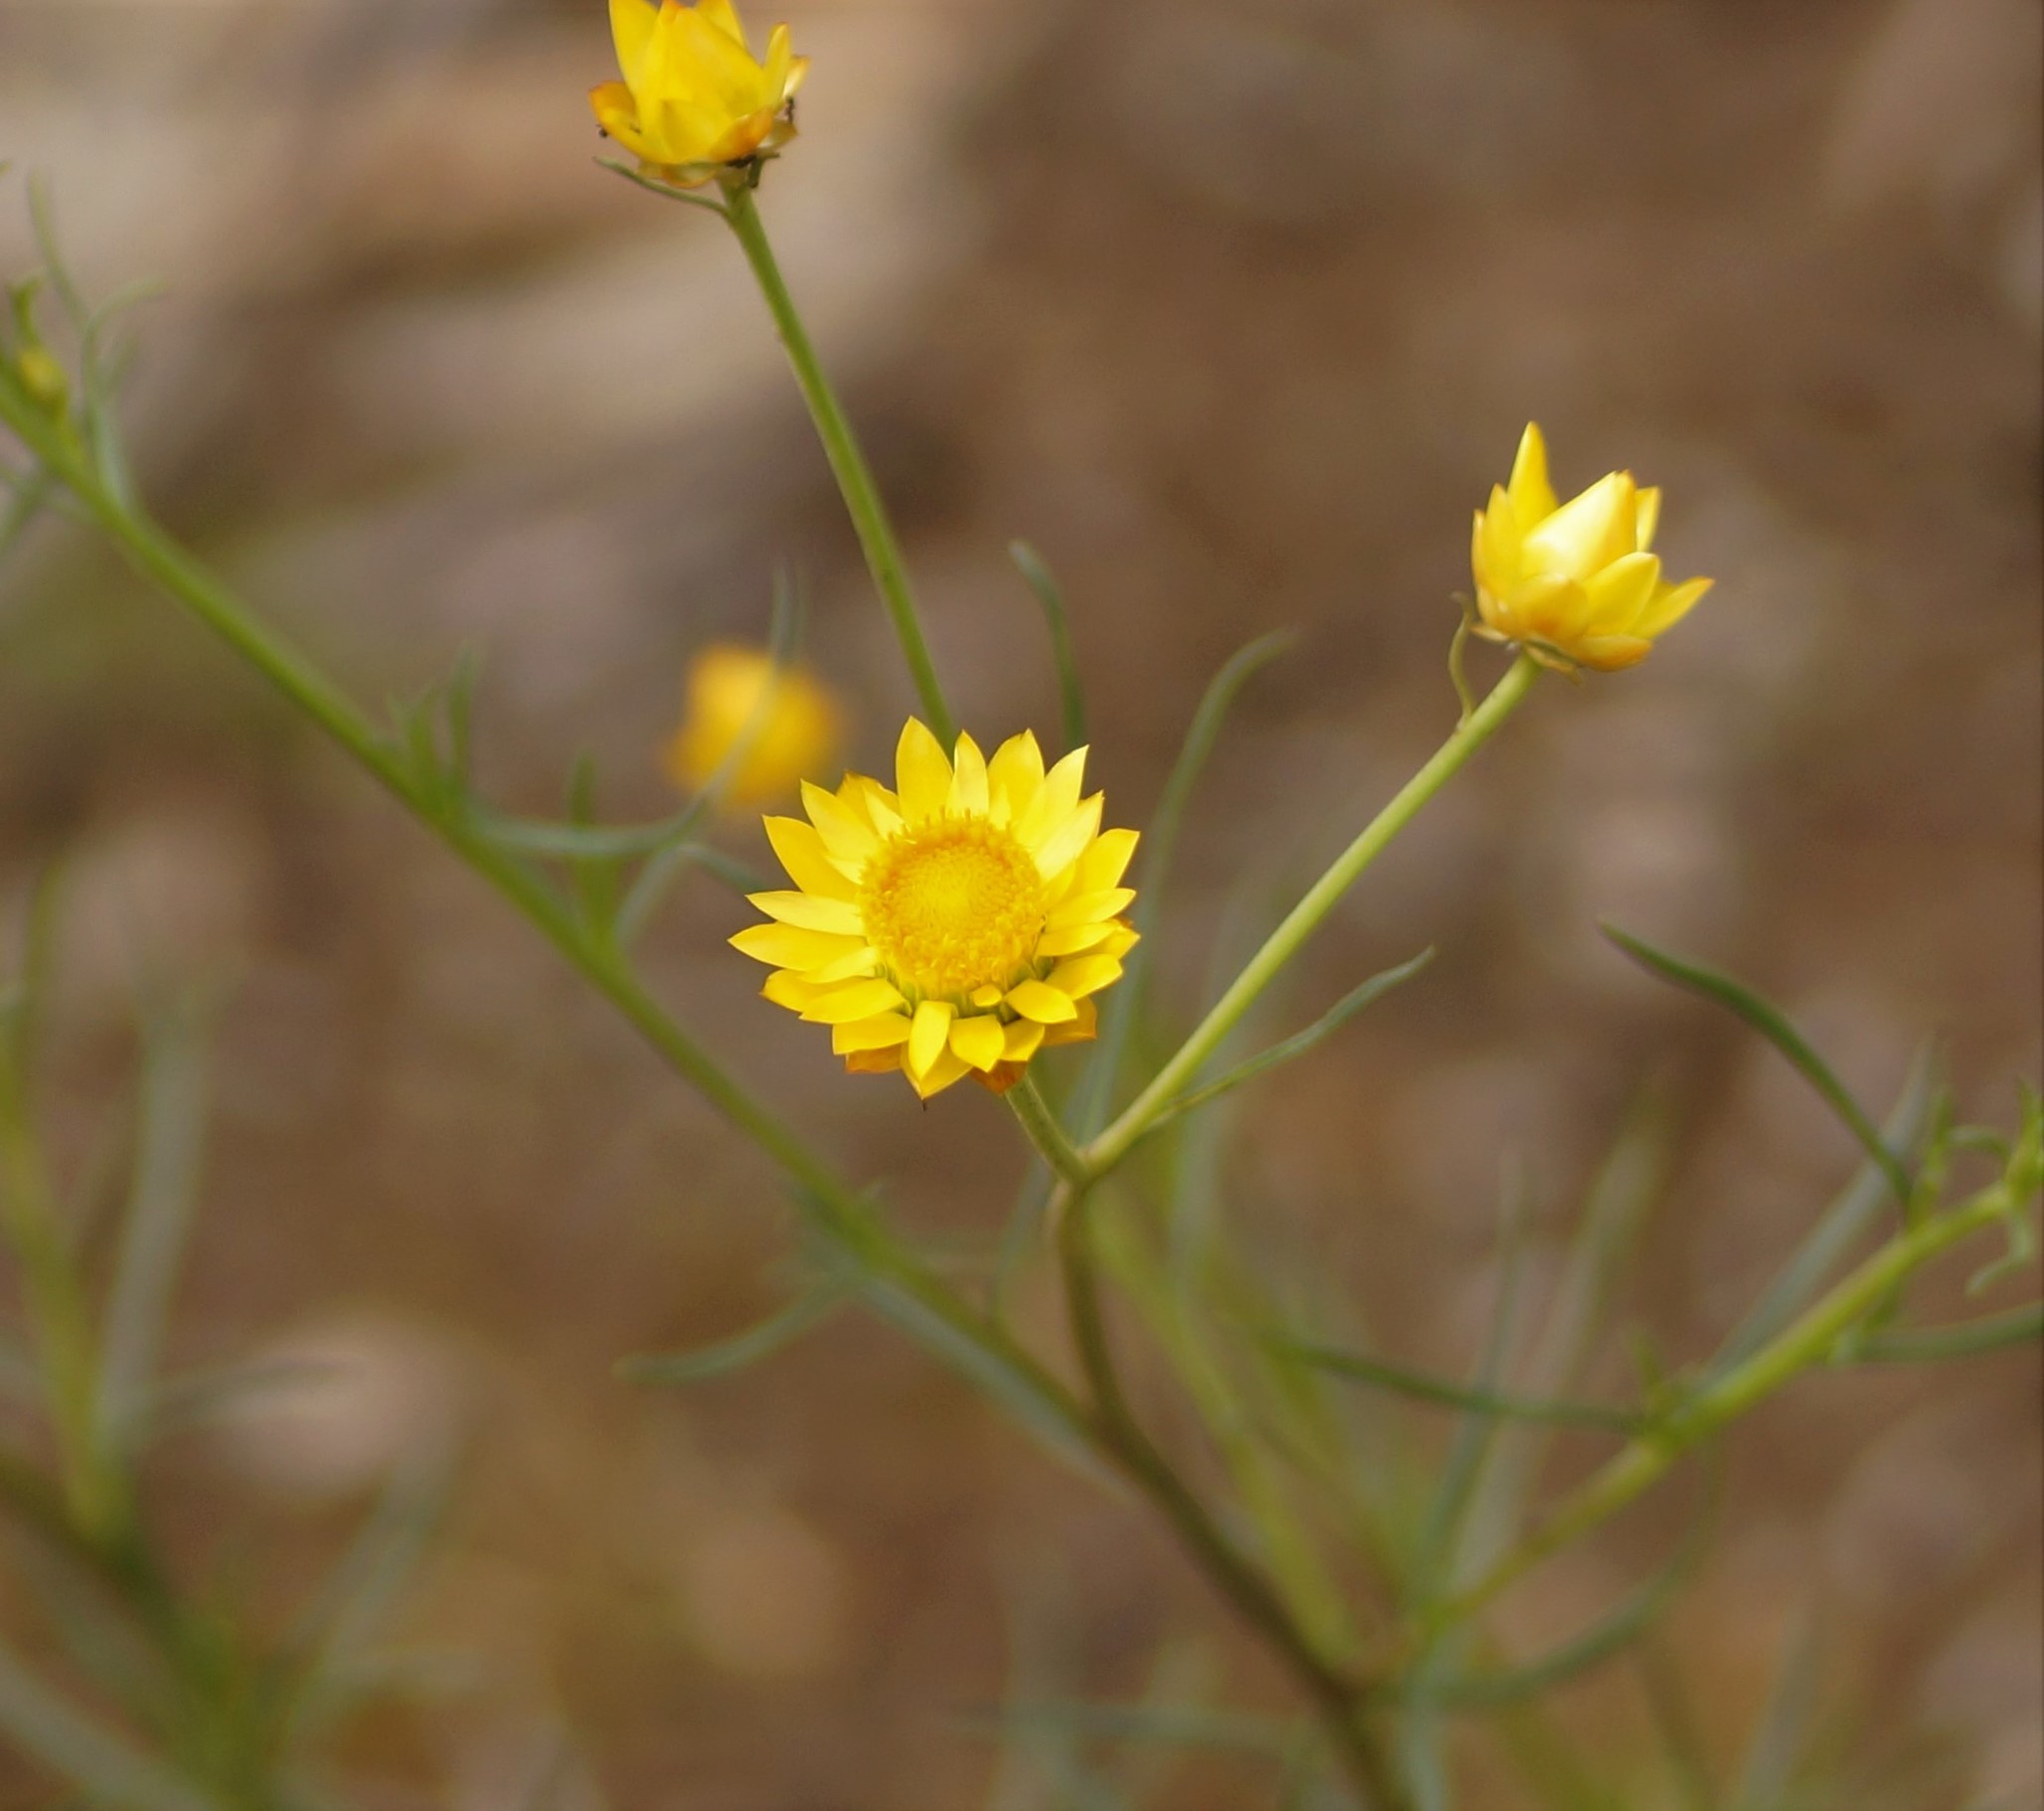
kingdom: Plantae
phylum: Tracheophyta
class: Magnoliopsida
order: Asterales
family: Asteraceae
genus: Xerochrysum
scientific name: Xerochrysum viscosum
